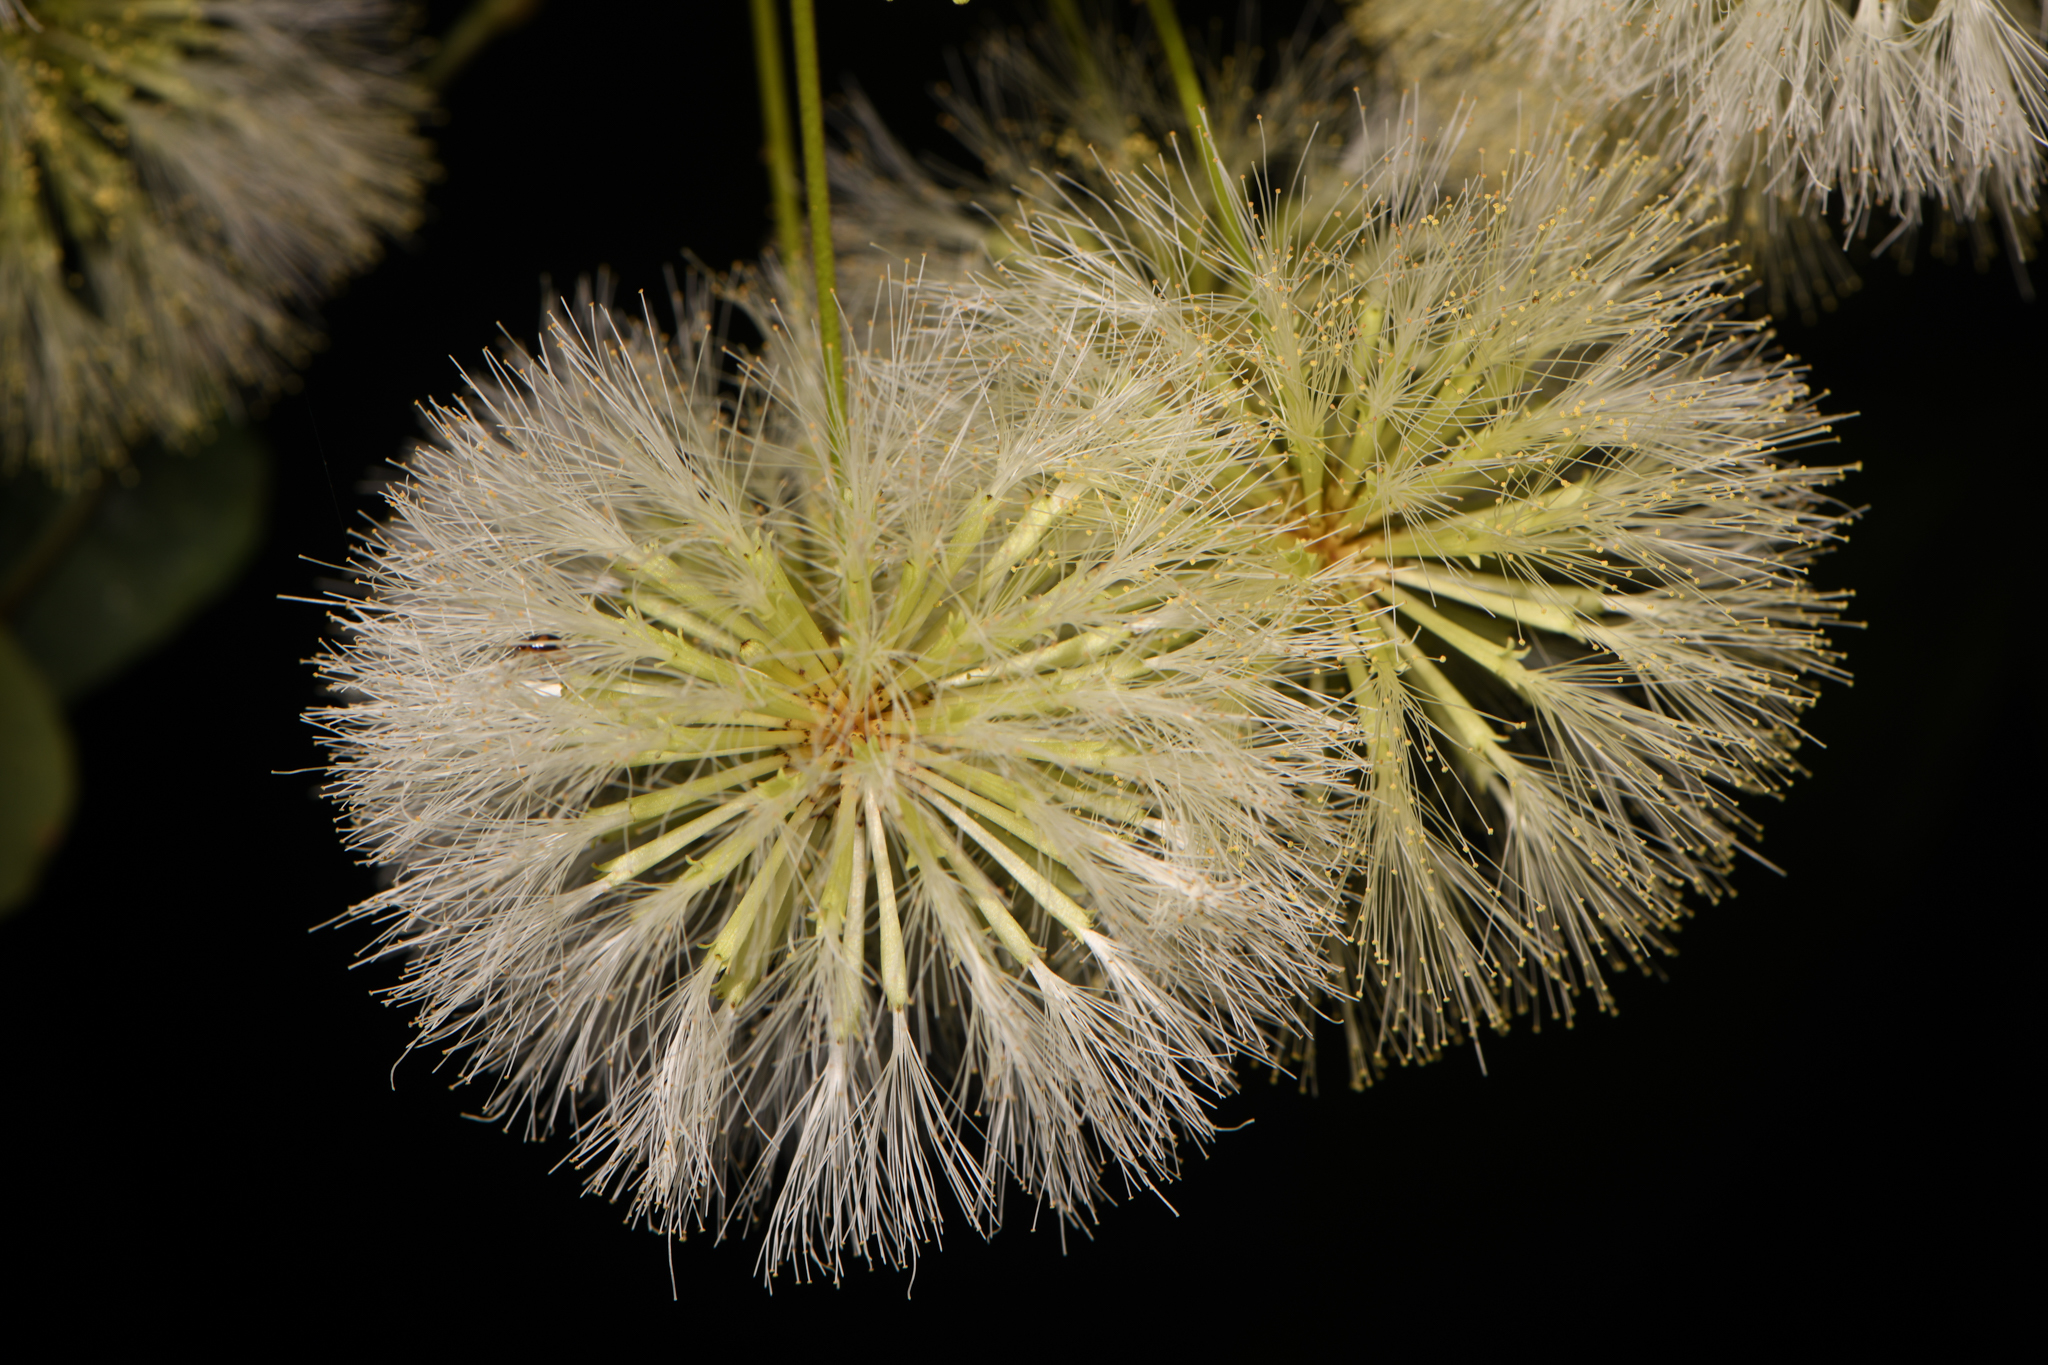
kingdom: Plantae
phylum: Tracheophyta
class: Magnoliopsida
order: Fabales
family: Fabaceae
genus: Cojoba
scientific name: Cojoba
